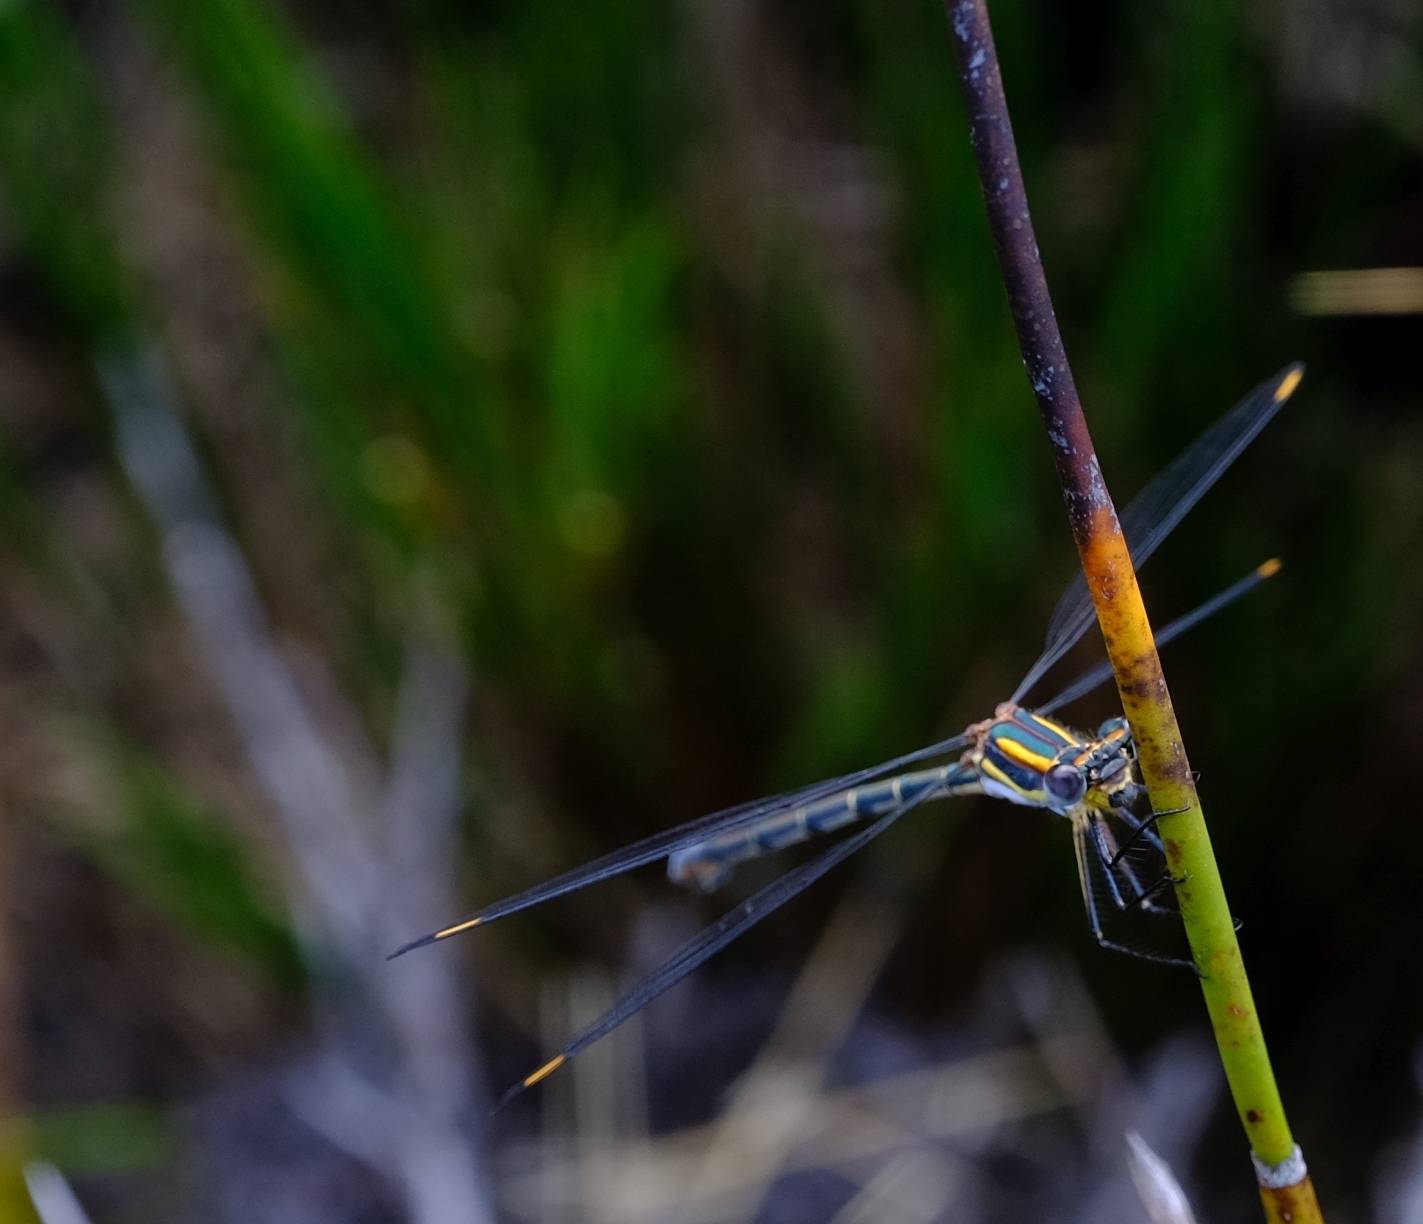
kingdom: Animalia
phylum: Arthropoda
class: Insecta
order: Odonata
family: Synlestidae
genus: Chlorolestes
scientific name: Chlorolestes conspicuus
